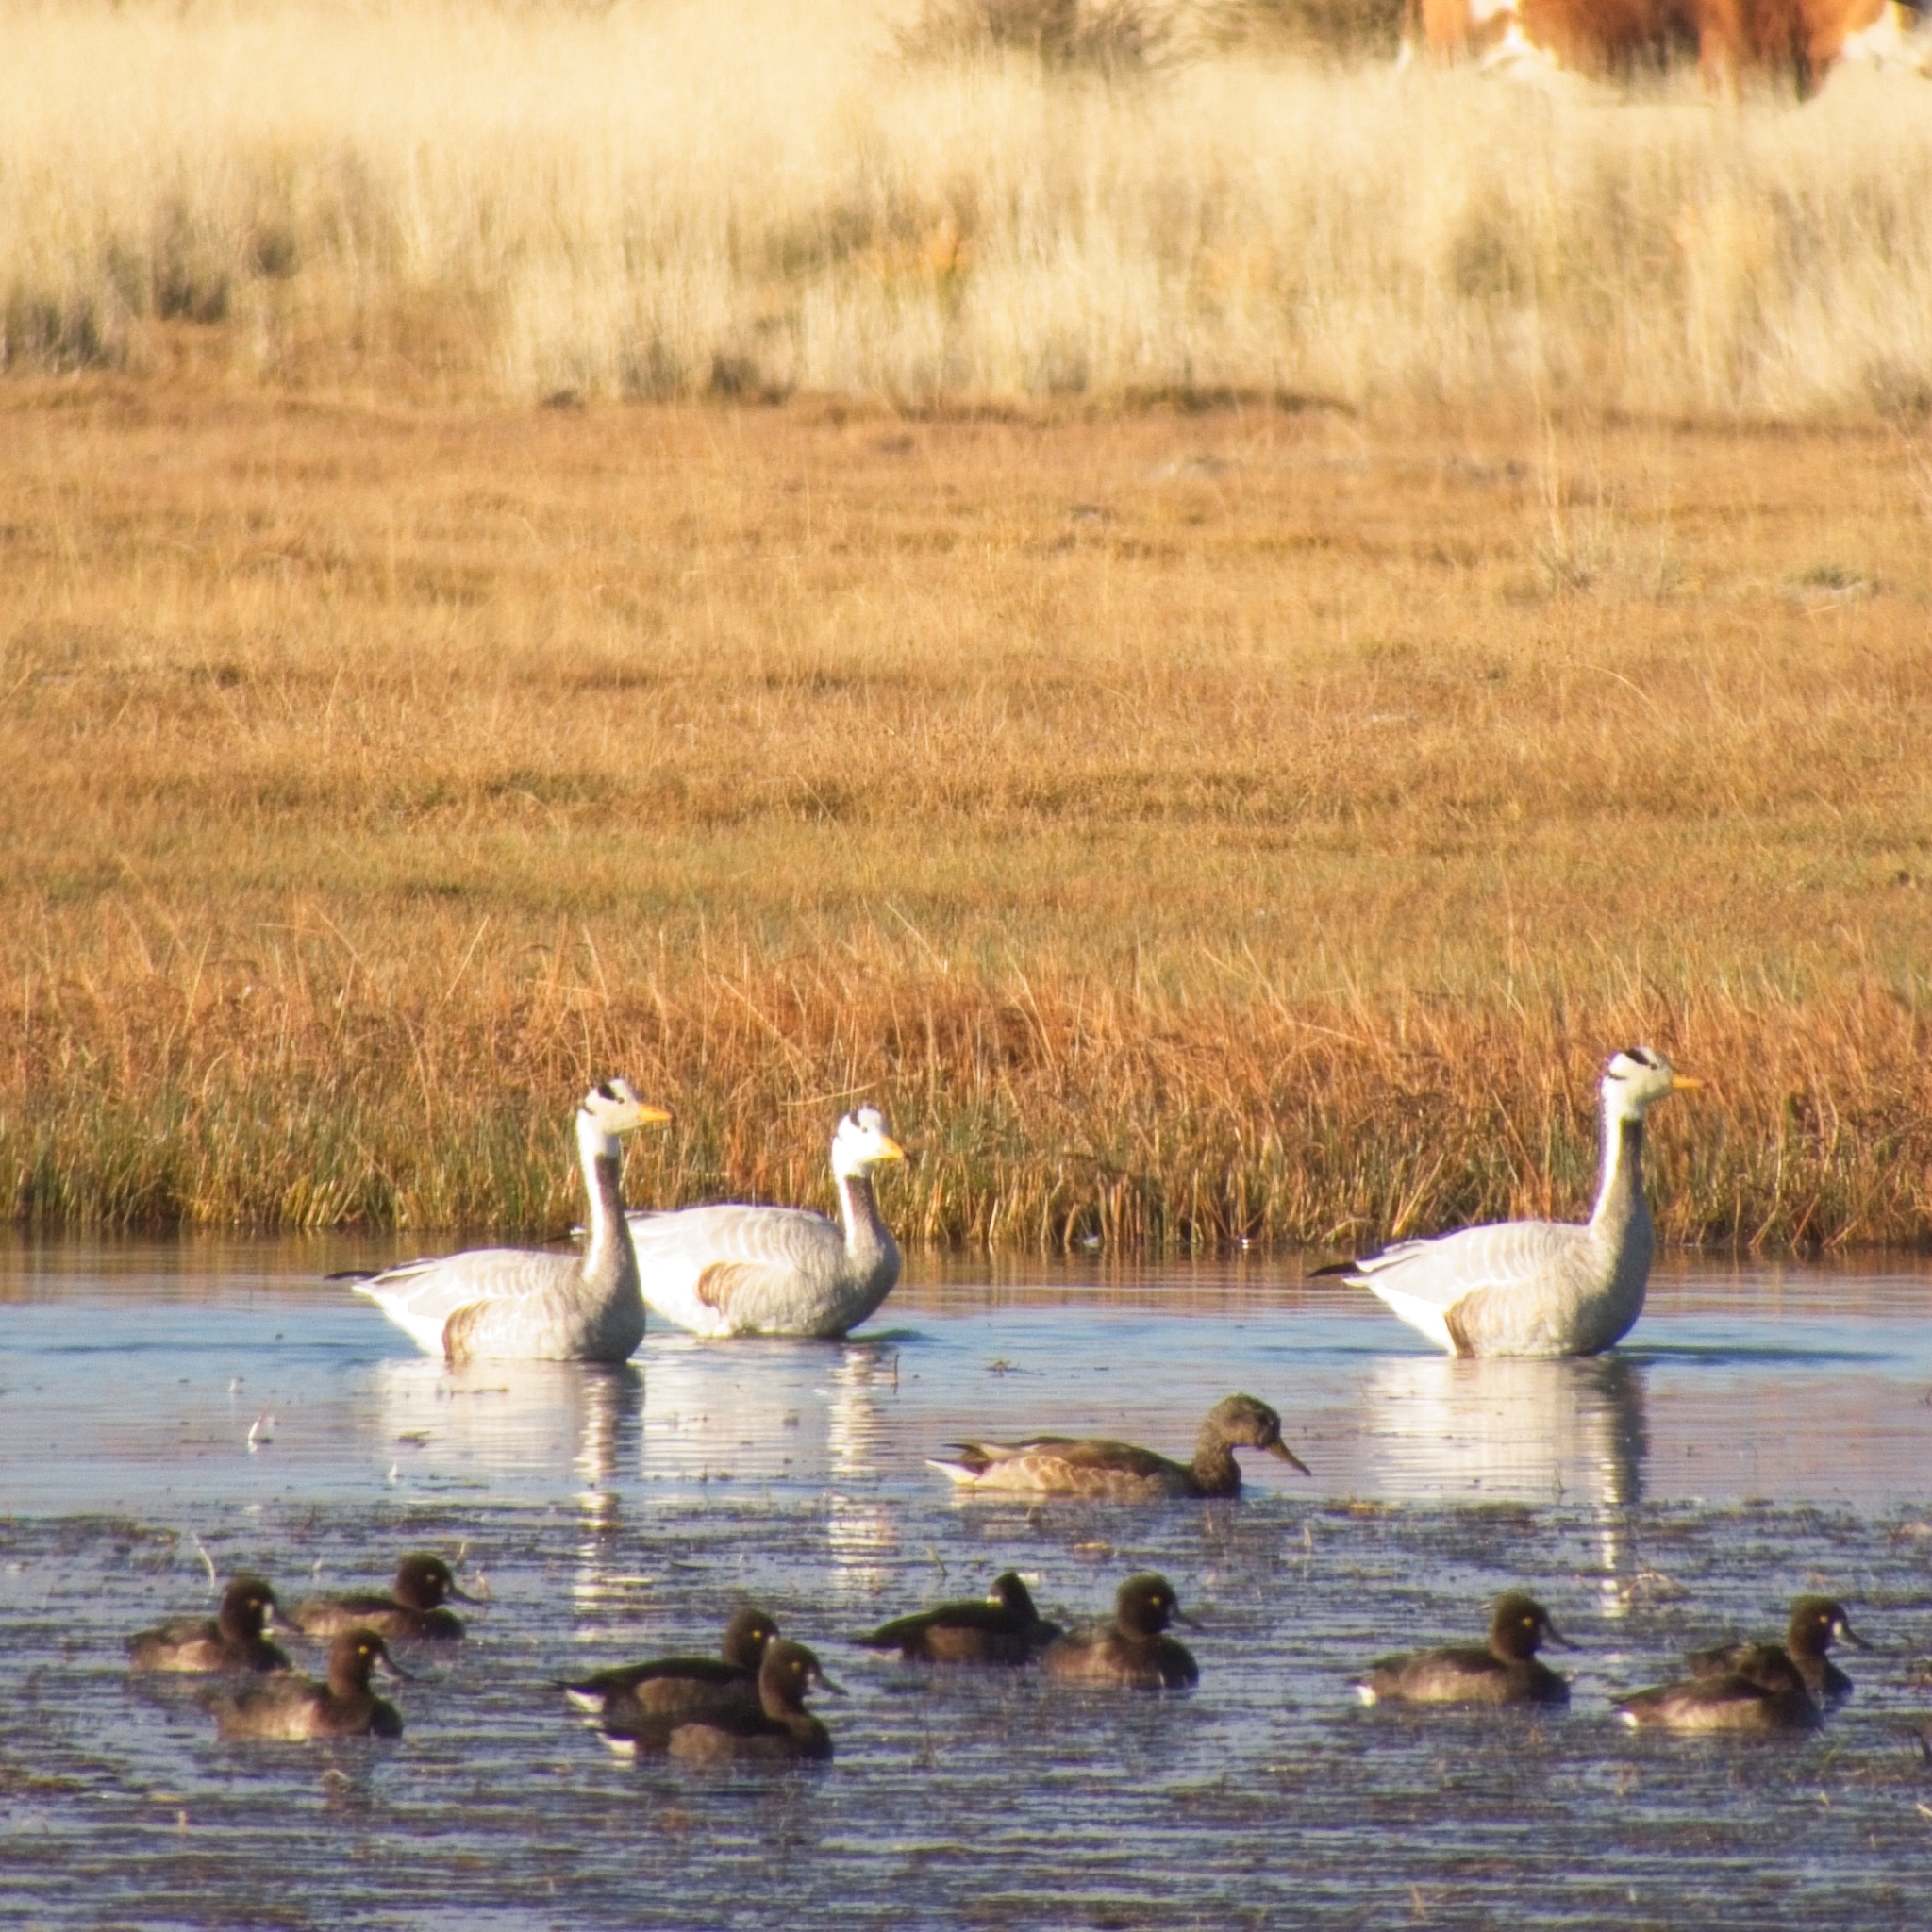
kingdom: Animalia
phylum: Chordata
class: Aves
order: Anseriformes
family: Anatidae
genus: Anser
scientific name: Anser indicus
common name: Bar-headed goose
